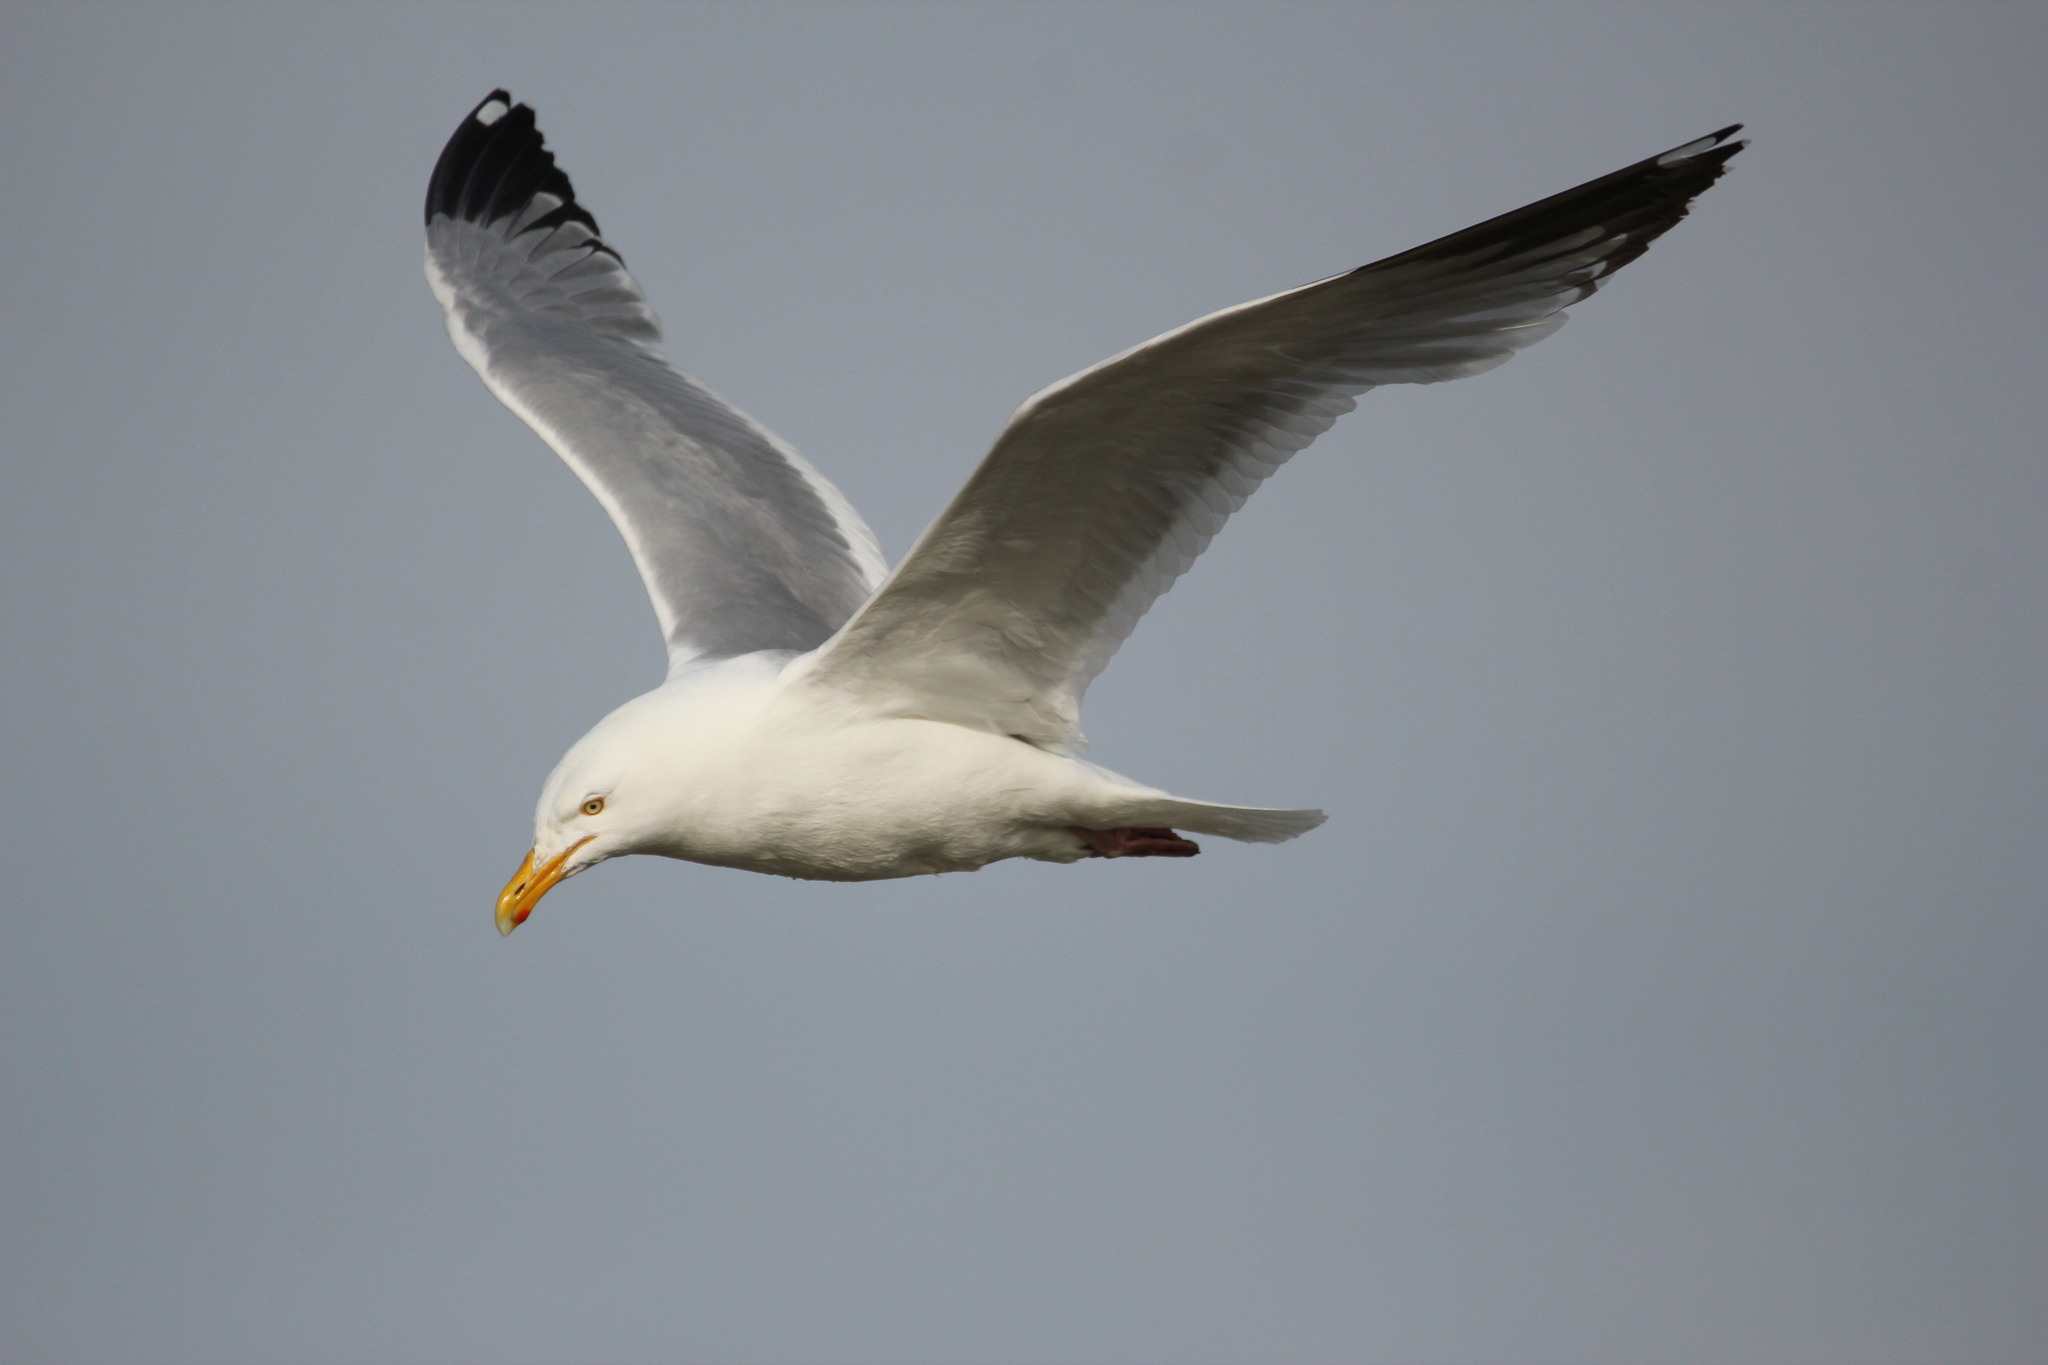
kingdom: Animalia
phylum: Chordata
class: Aves
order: Charadriiformes
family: Laridae
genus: Larus
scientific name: Larus argentatus
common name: Herring gull
